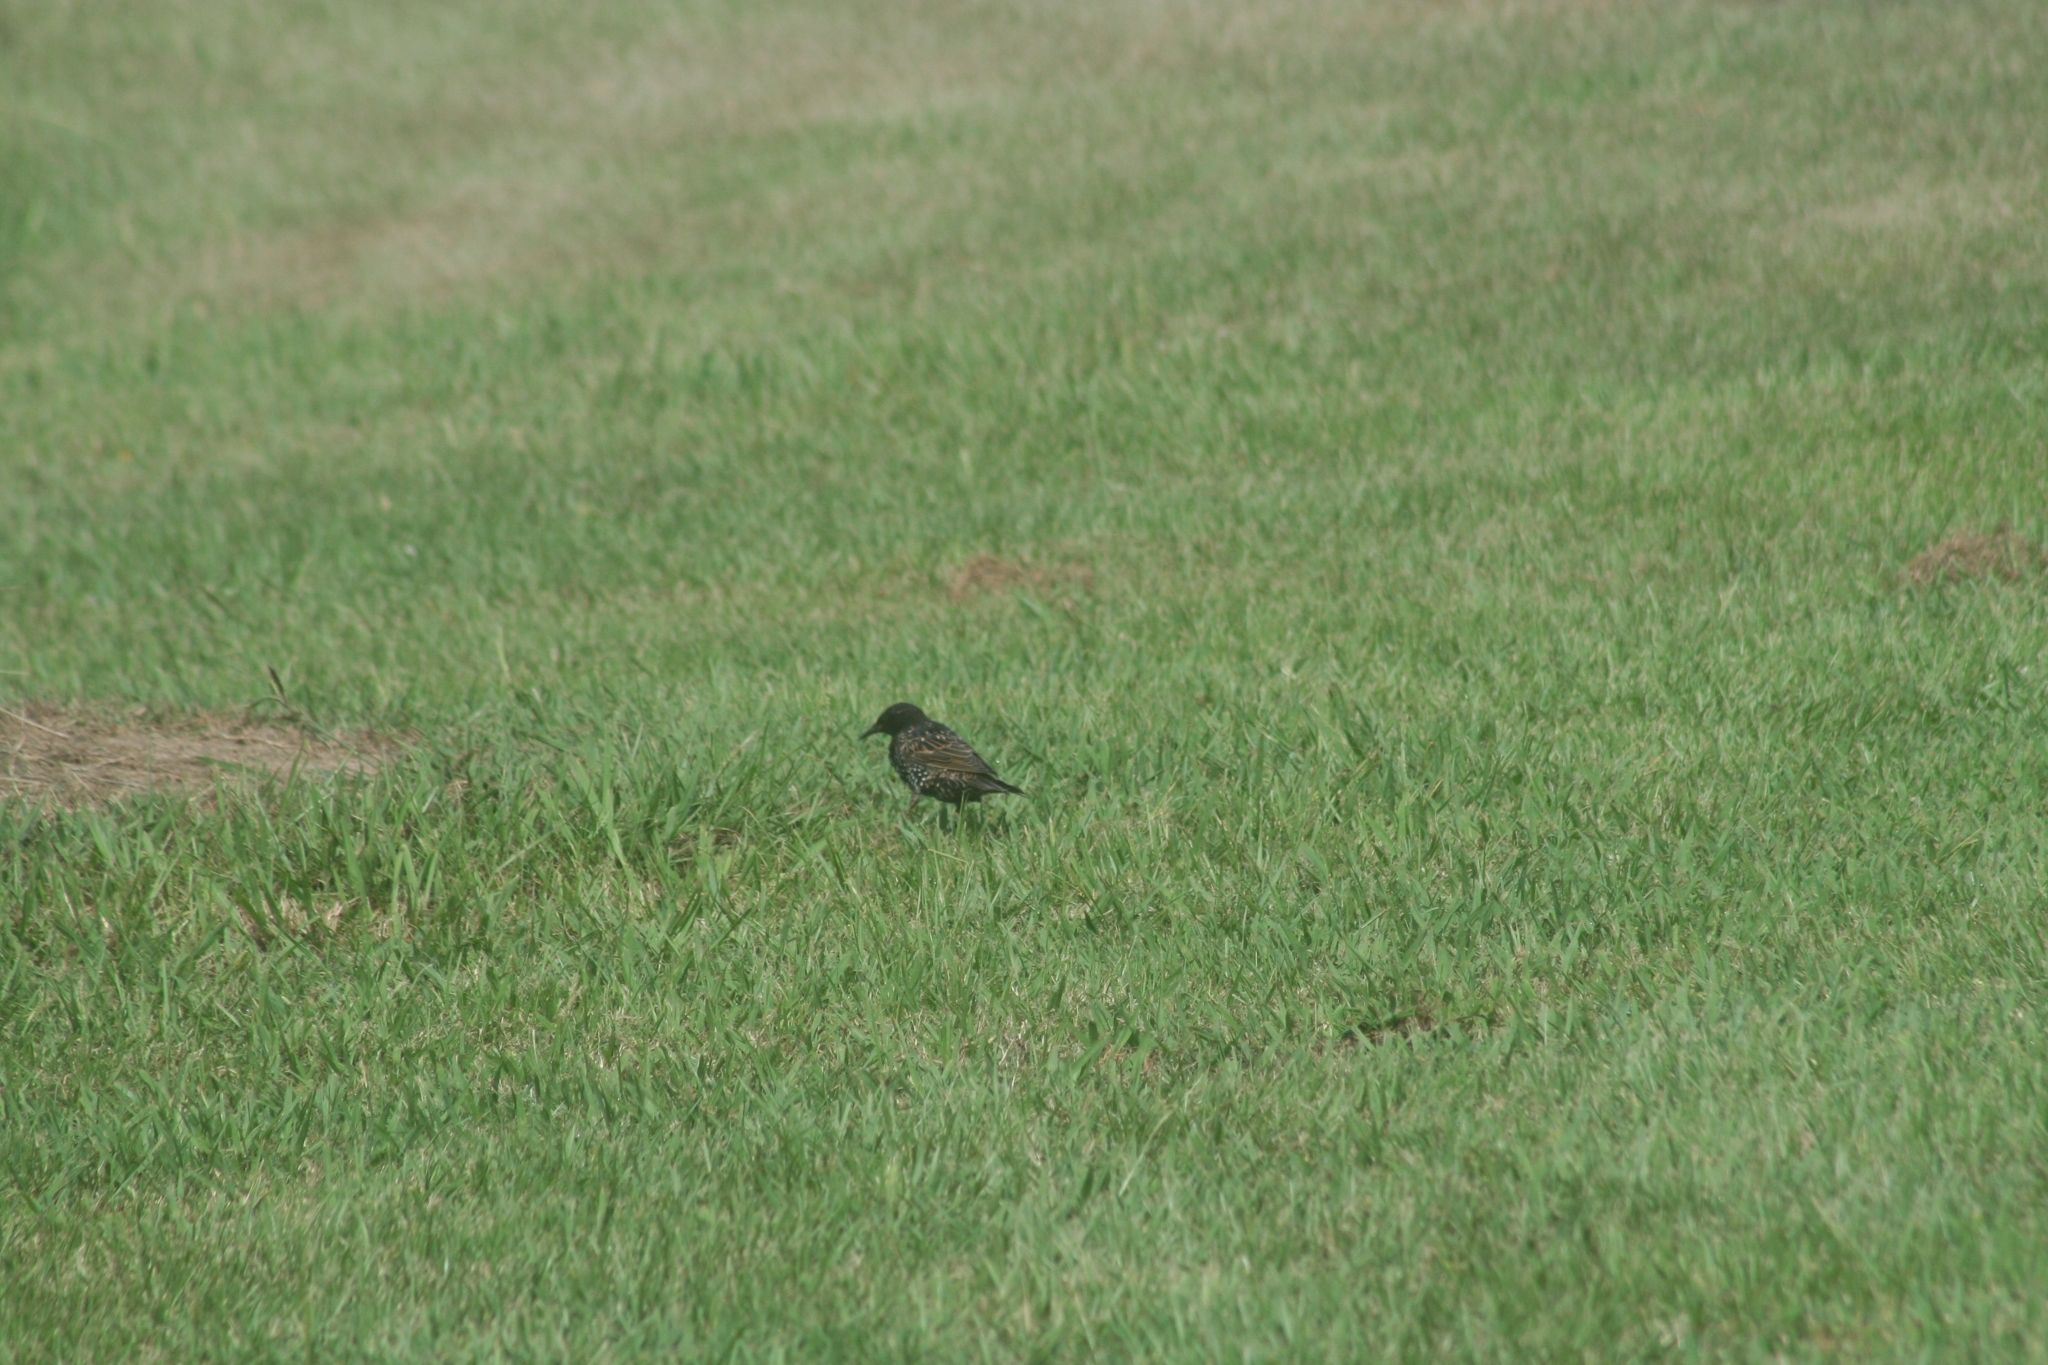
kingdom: Animalia
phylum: Chordata
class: Aves
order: Passeriformes
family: Sturnidae
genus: Sturnus
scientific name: Sturnus vulgaris
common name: Common starling
